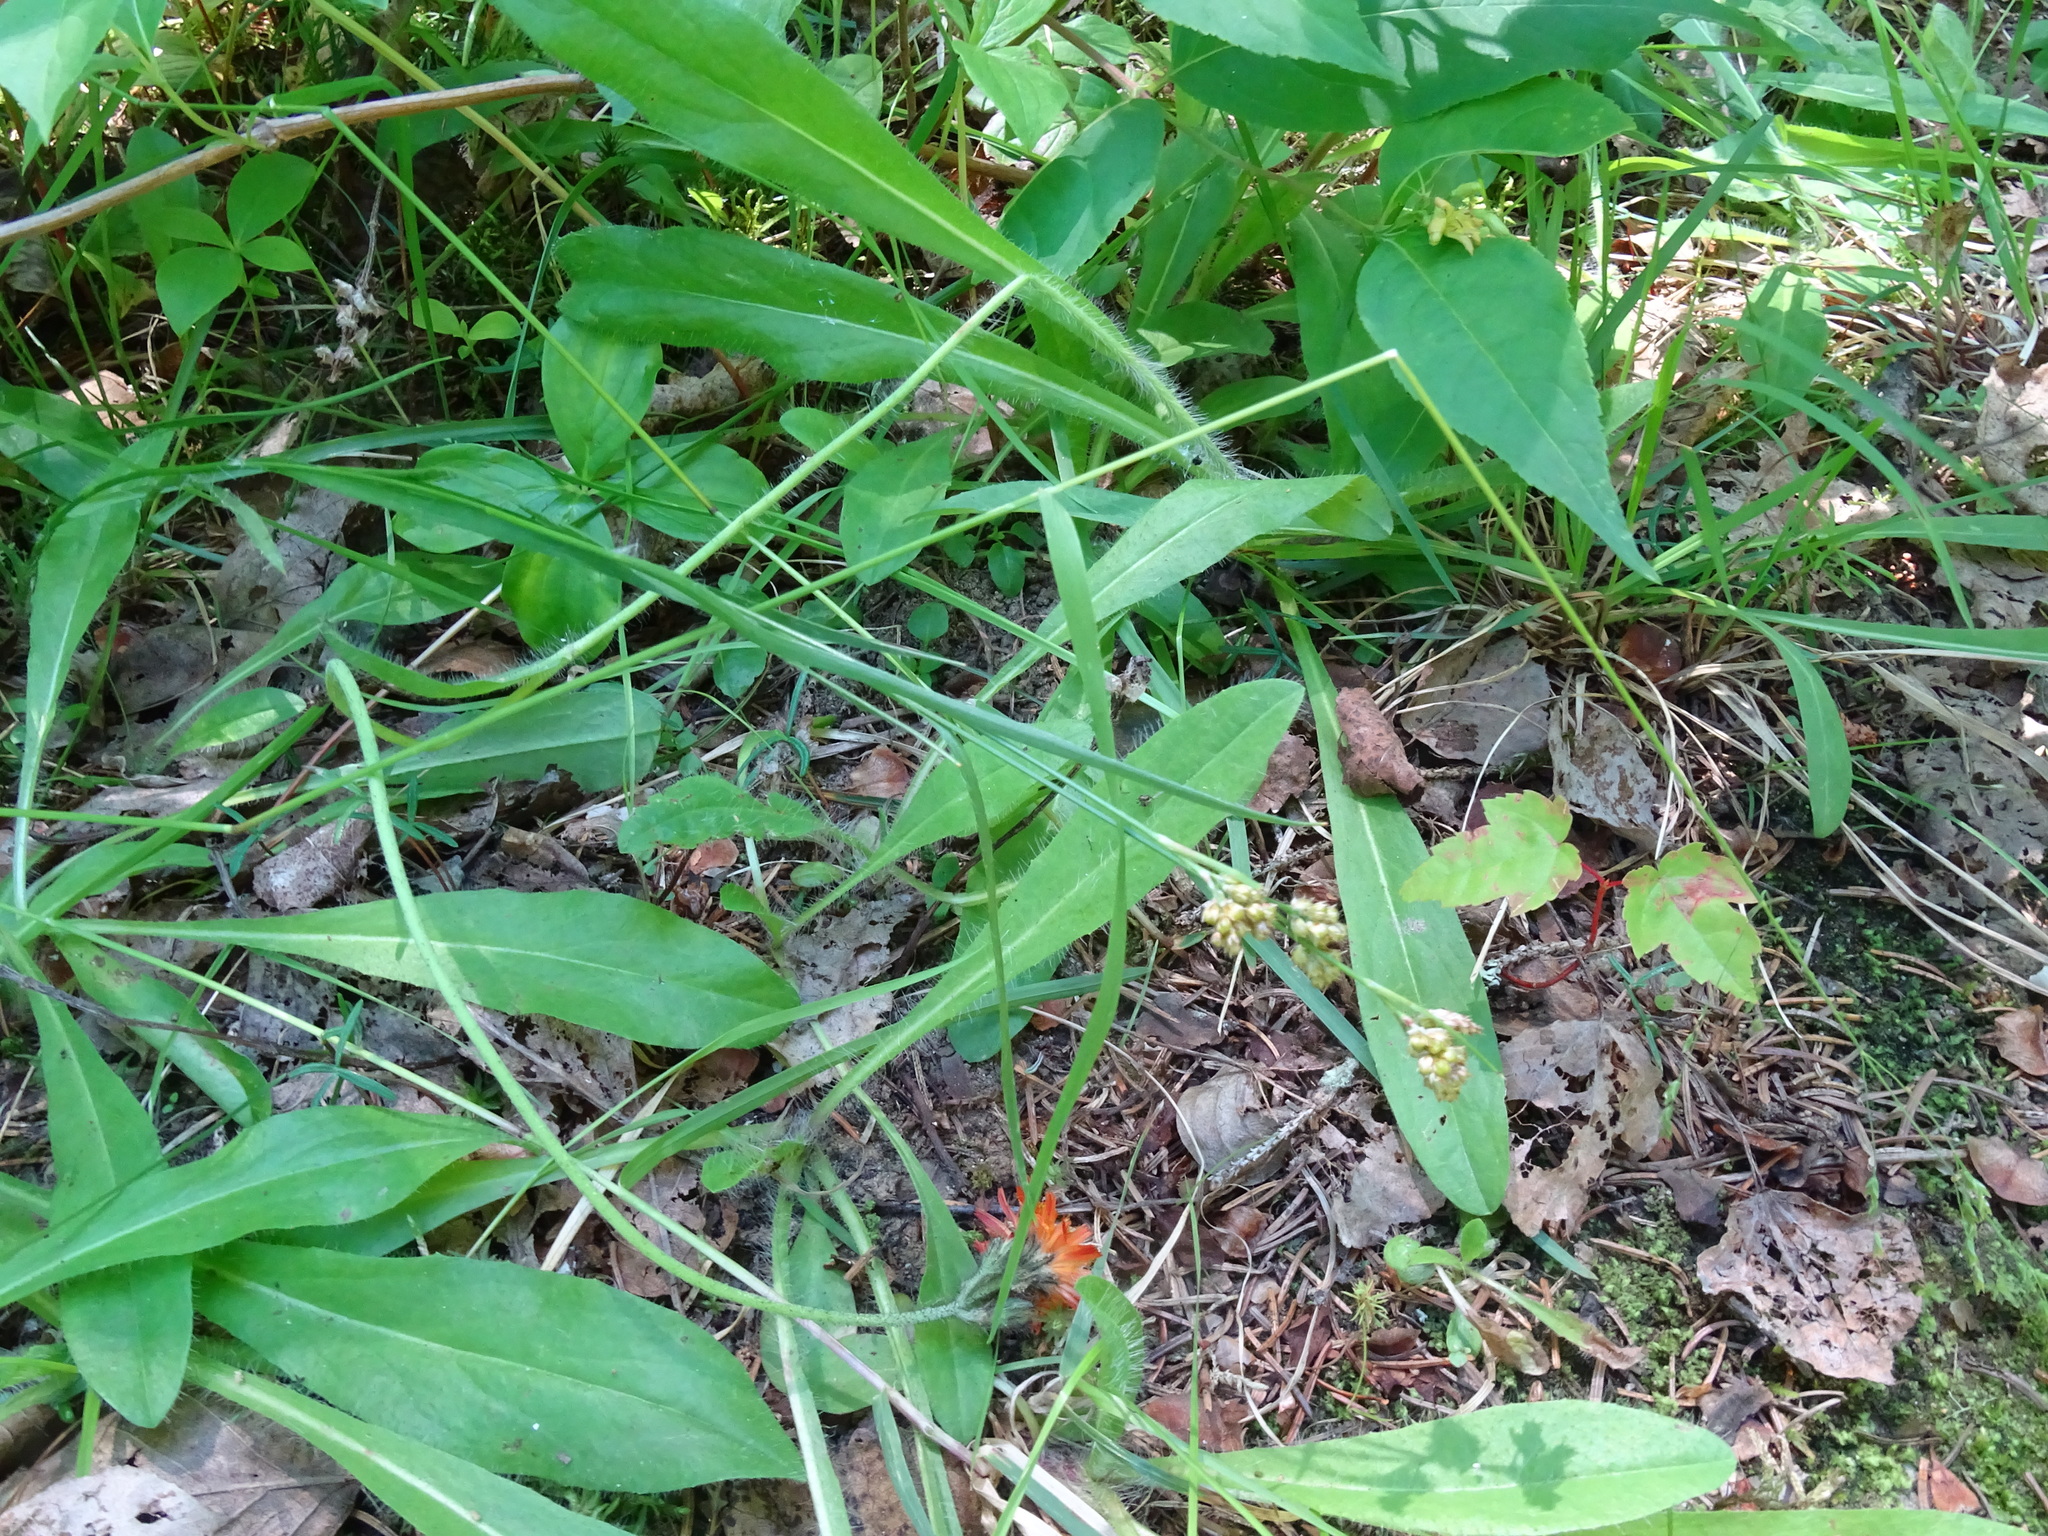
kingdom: Plantae
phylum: Tracheophyta
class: Liliopsida
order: Poales
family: Juncaceae
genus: Luzula
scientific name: Luzula multiflora
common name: Heath wood-rush
